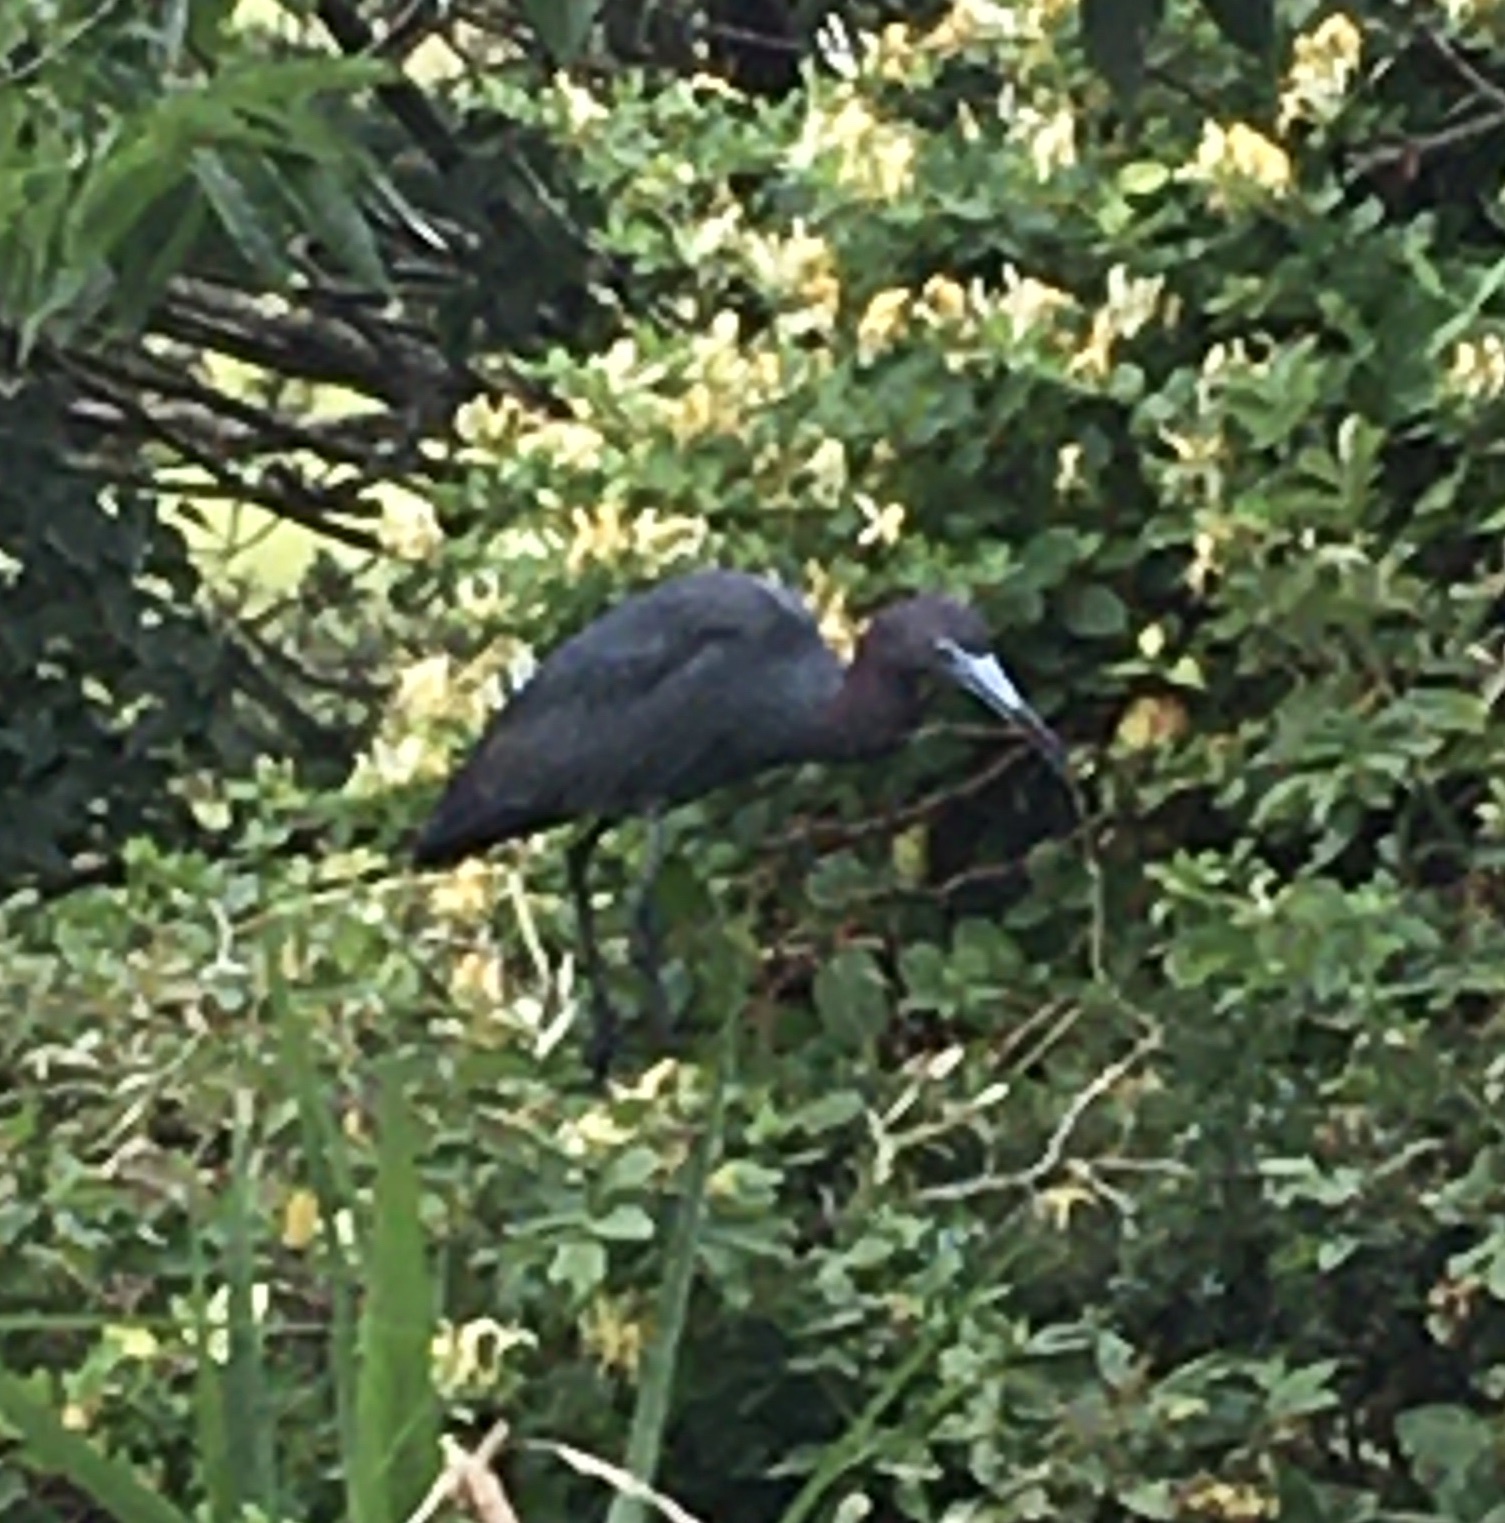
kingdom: Animalia
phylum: Chordata
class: Aves
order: Pelecaniformes
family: Ardeidae
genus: Egretta
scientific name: Egretta caerulea
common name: Little blue heron
